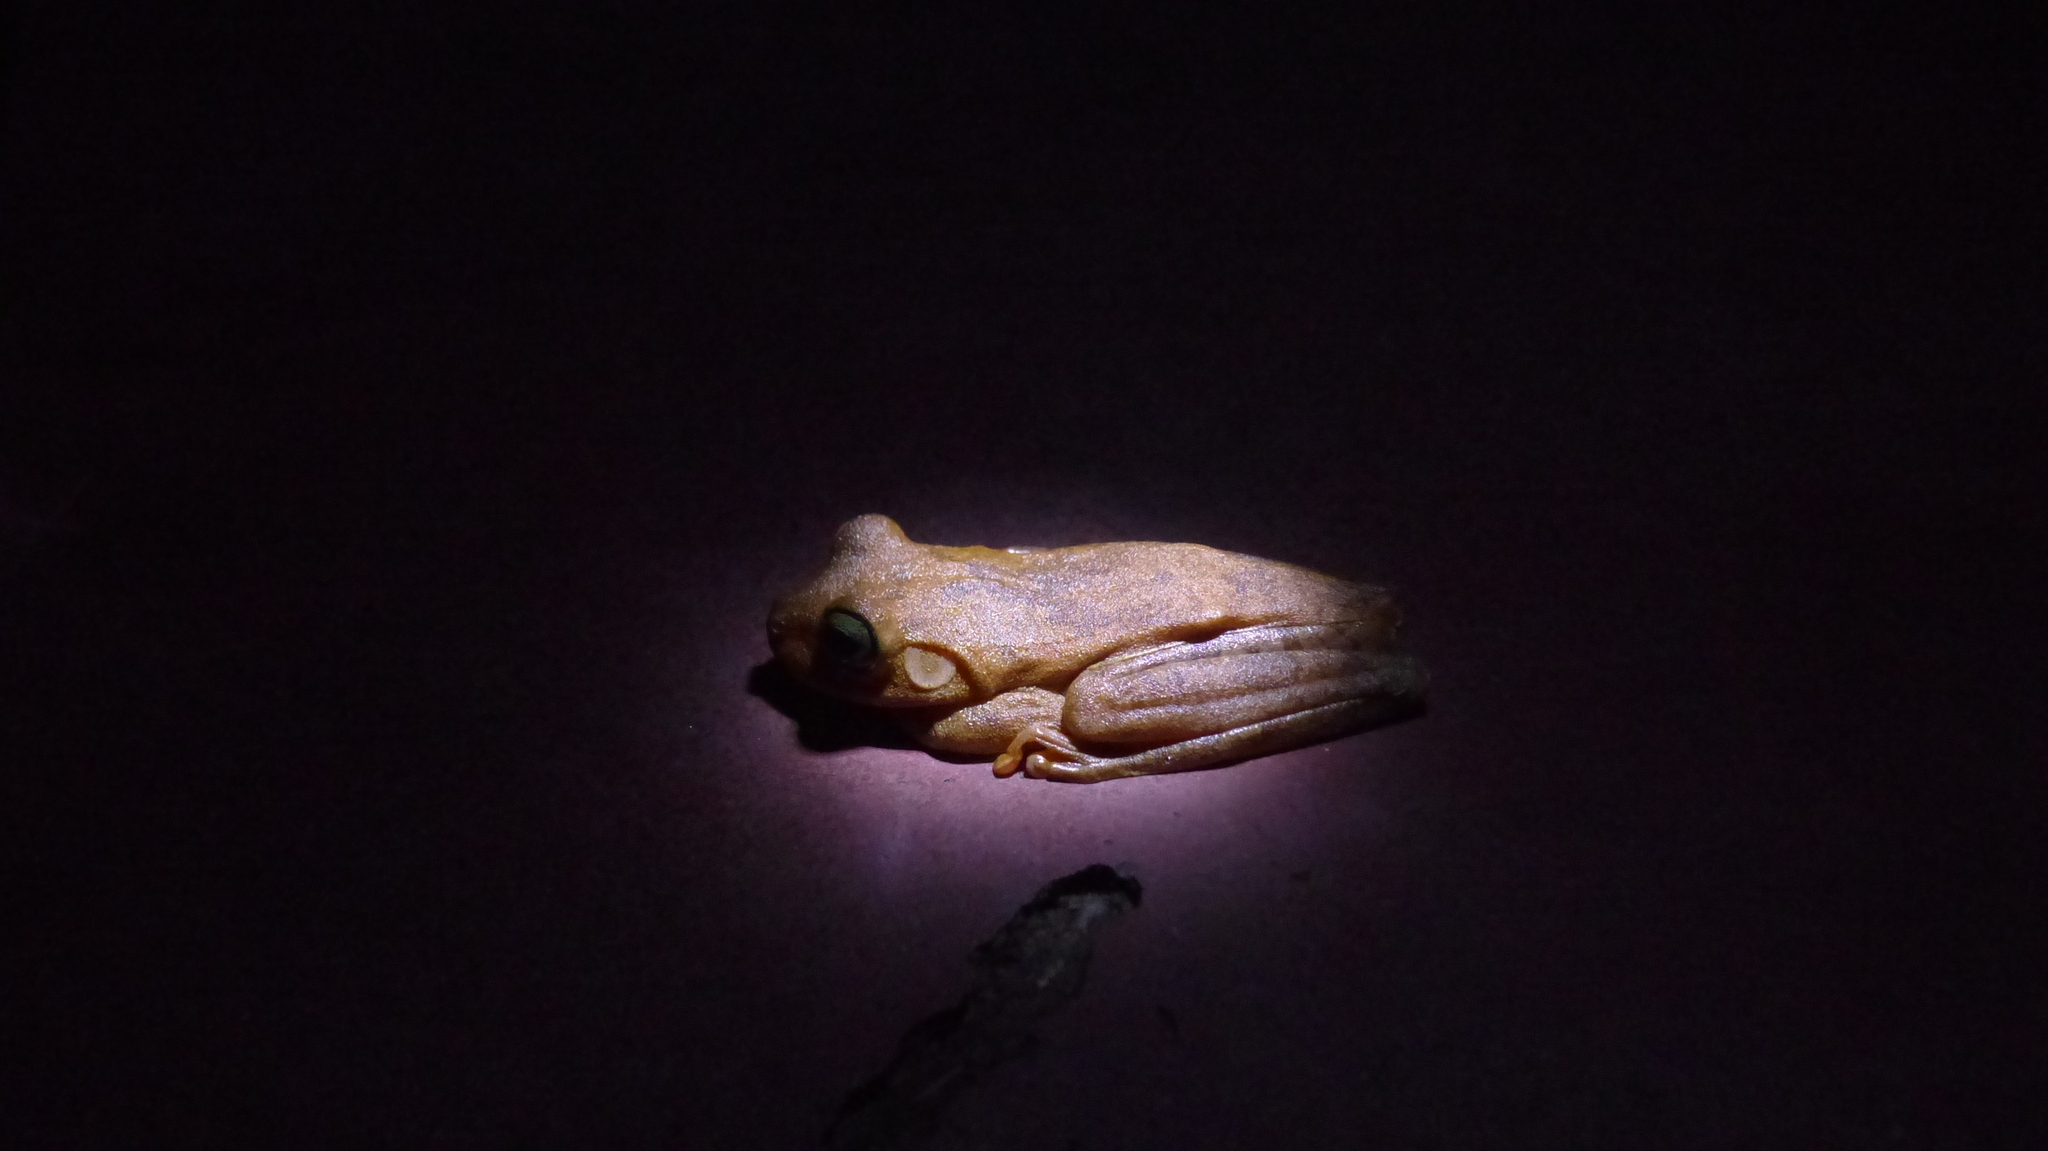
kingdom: Animalia
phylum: Chordata
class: Amphibia
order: Anura
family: Hylidae
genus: Boana
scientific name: Boana platanera
